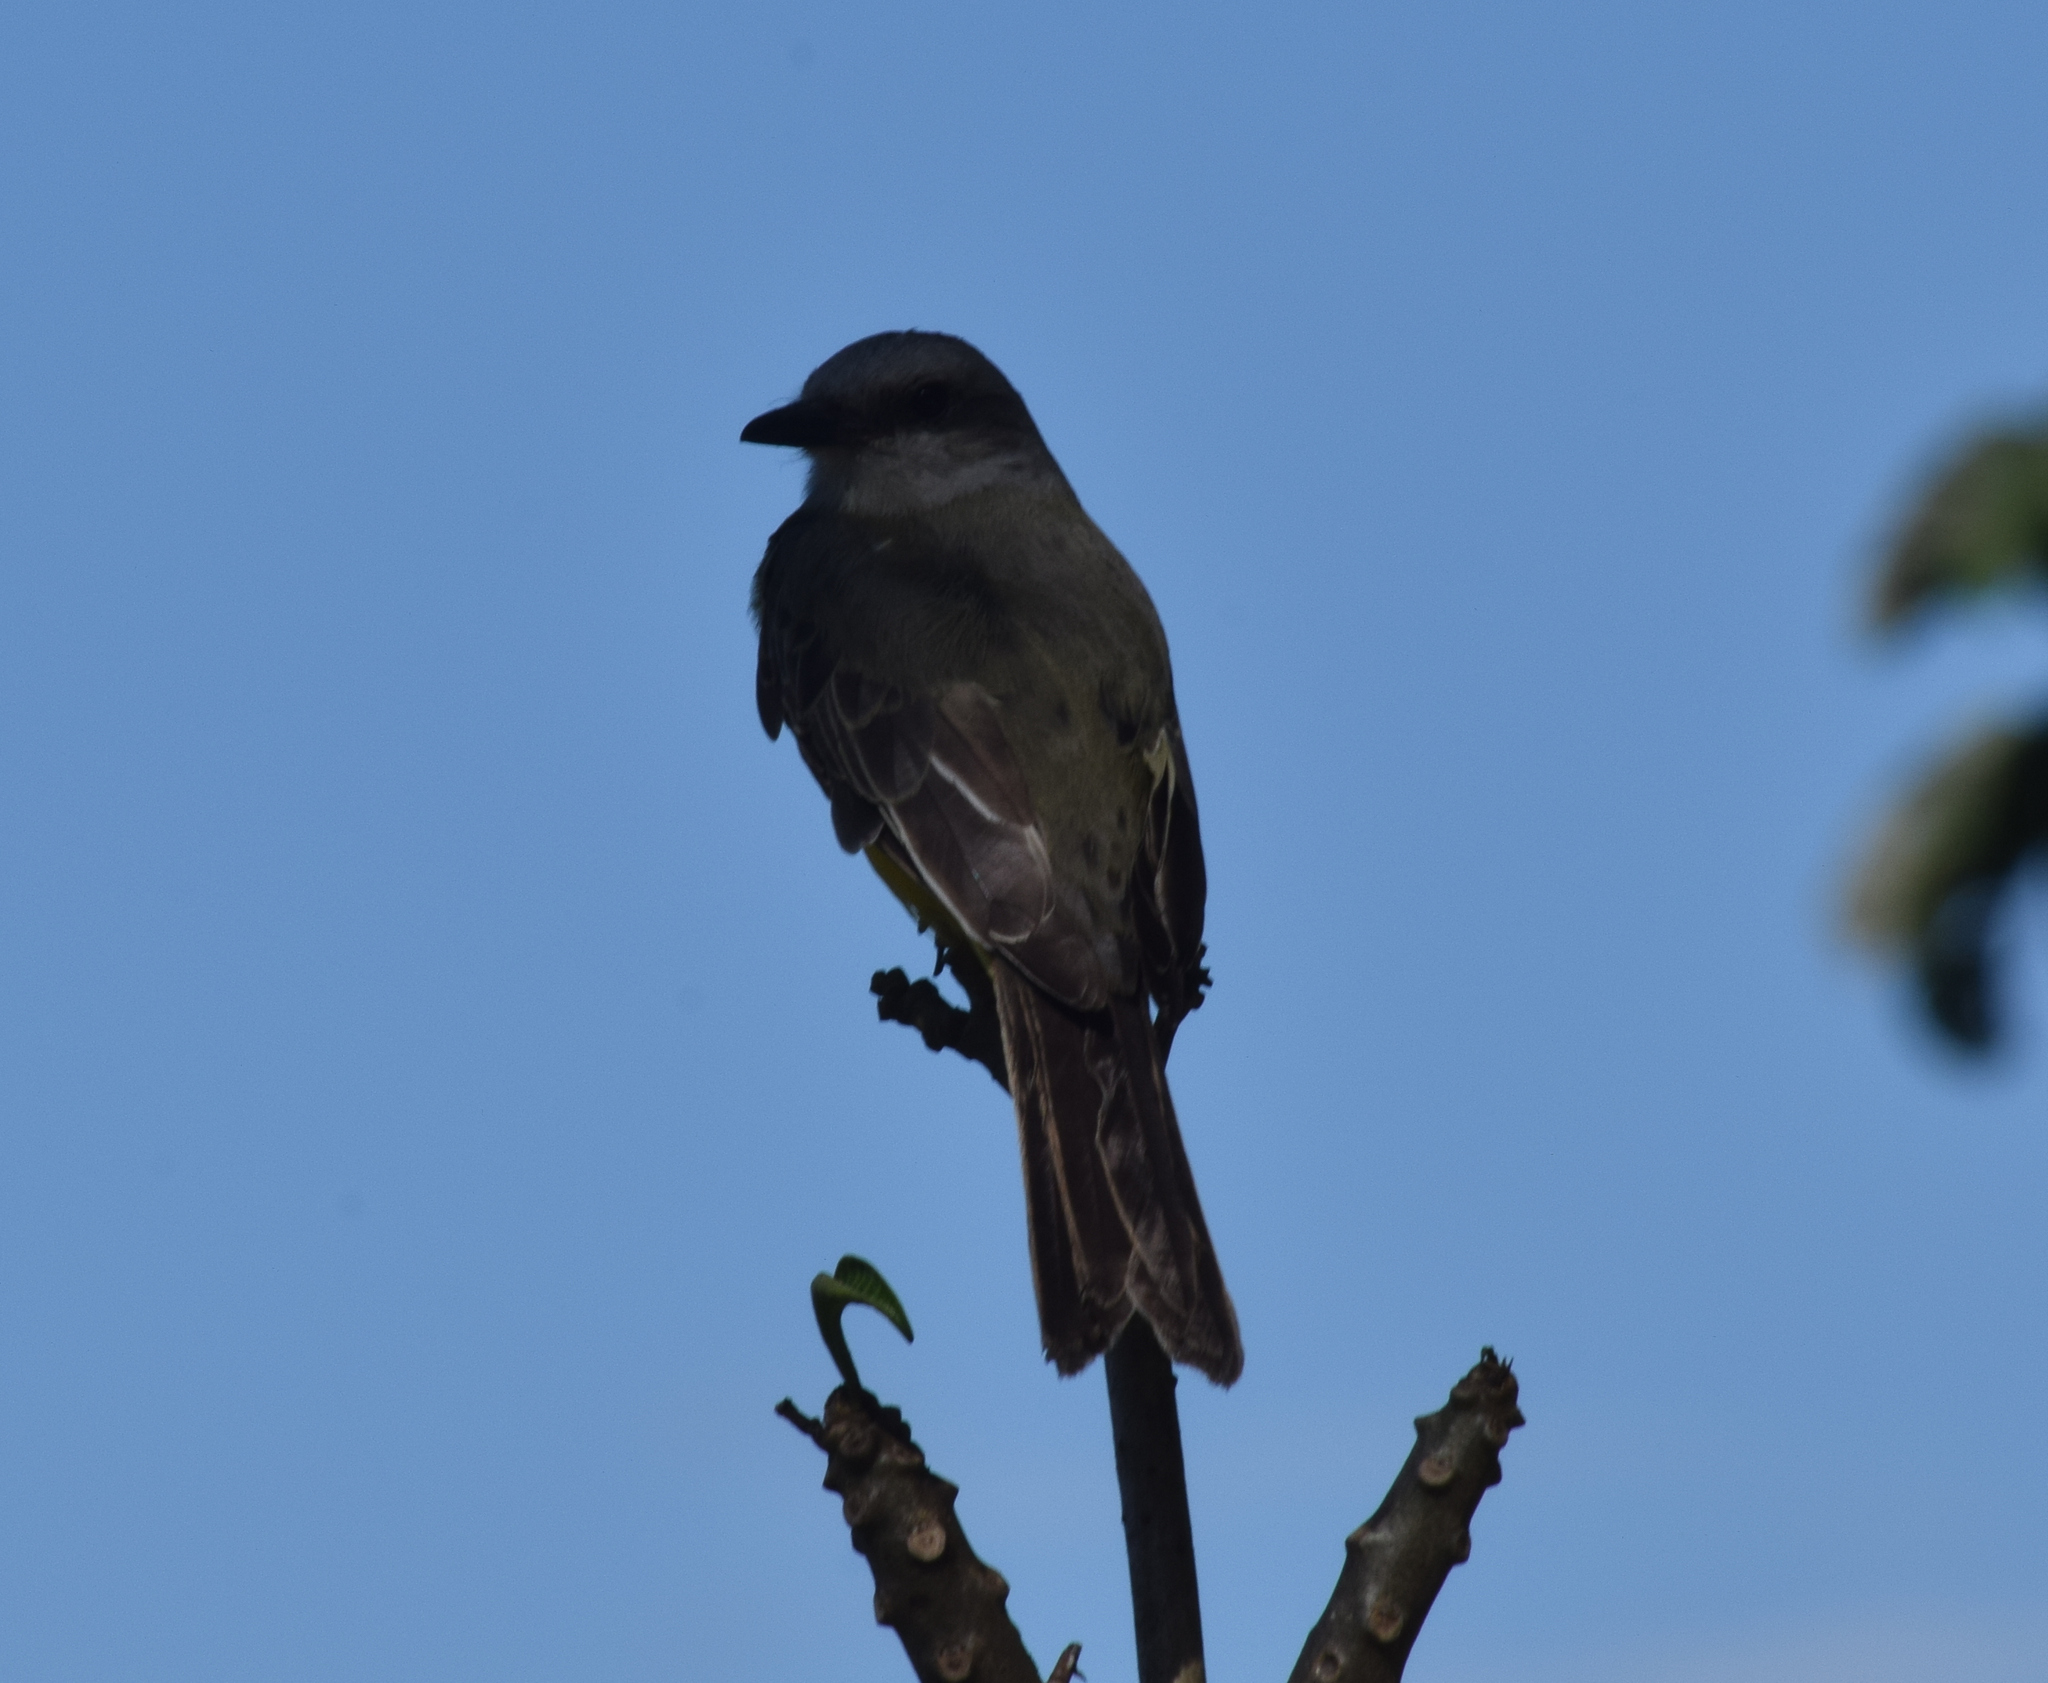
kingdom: Animalia
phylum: Chordata
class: Aves
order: Passeriformes
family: Tyrannidae
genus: Tyrannus
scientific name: Tyrannus melancholicus
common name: Tropical kingbird
